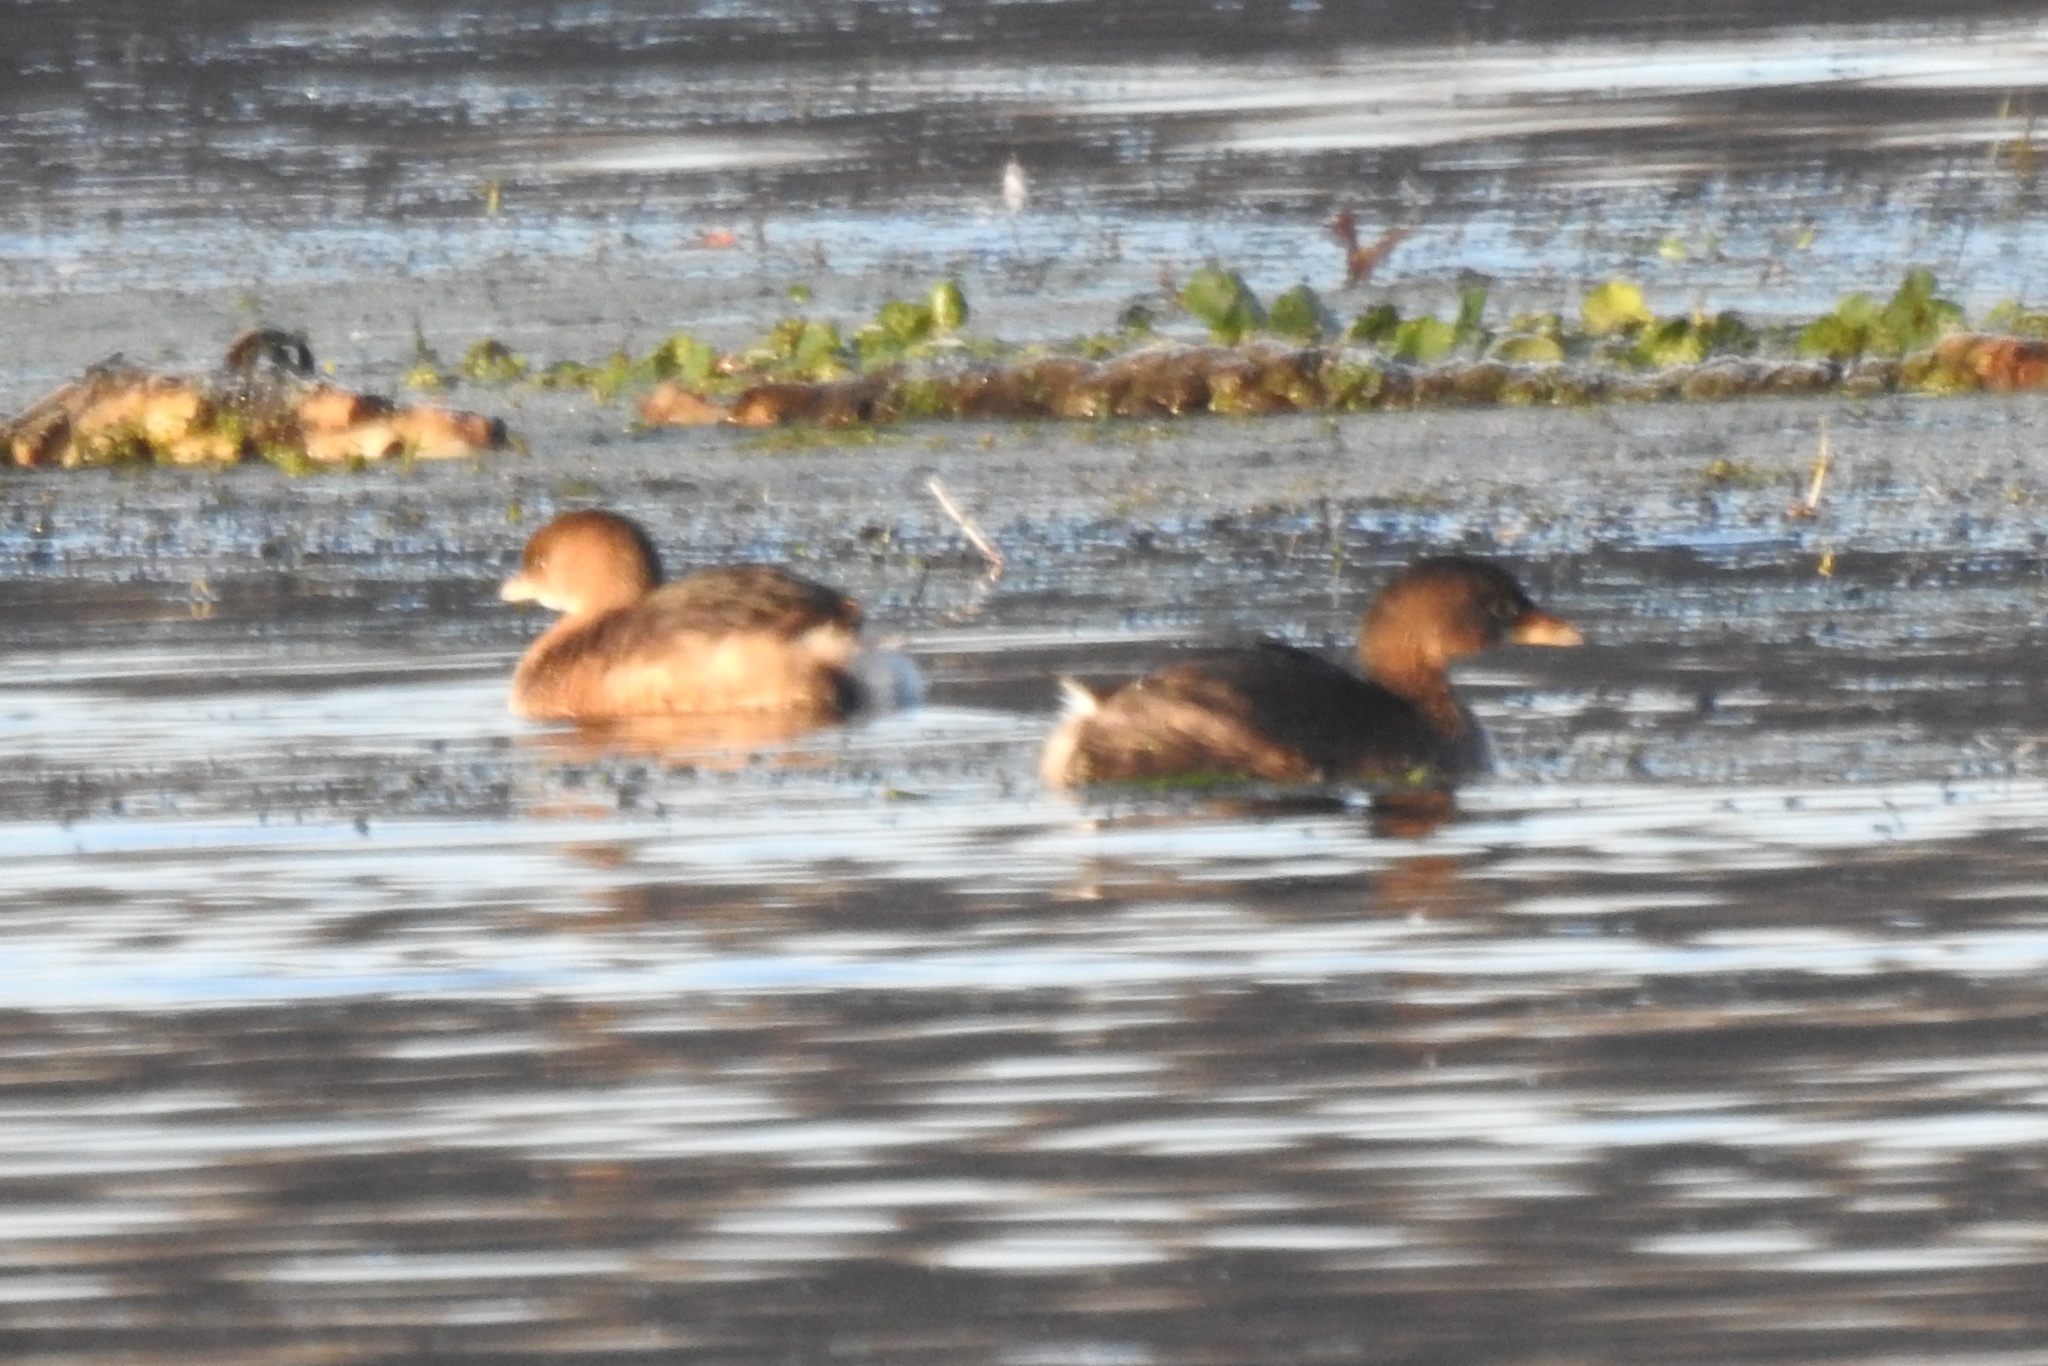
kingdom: Animalia
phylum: Chordata
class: Aves
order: Podicipediformes
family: Podicipedidae
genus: Podilymbus
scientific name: Podilymbus podiceps
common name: Pied-billed grebe
